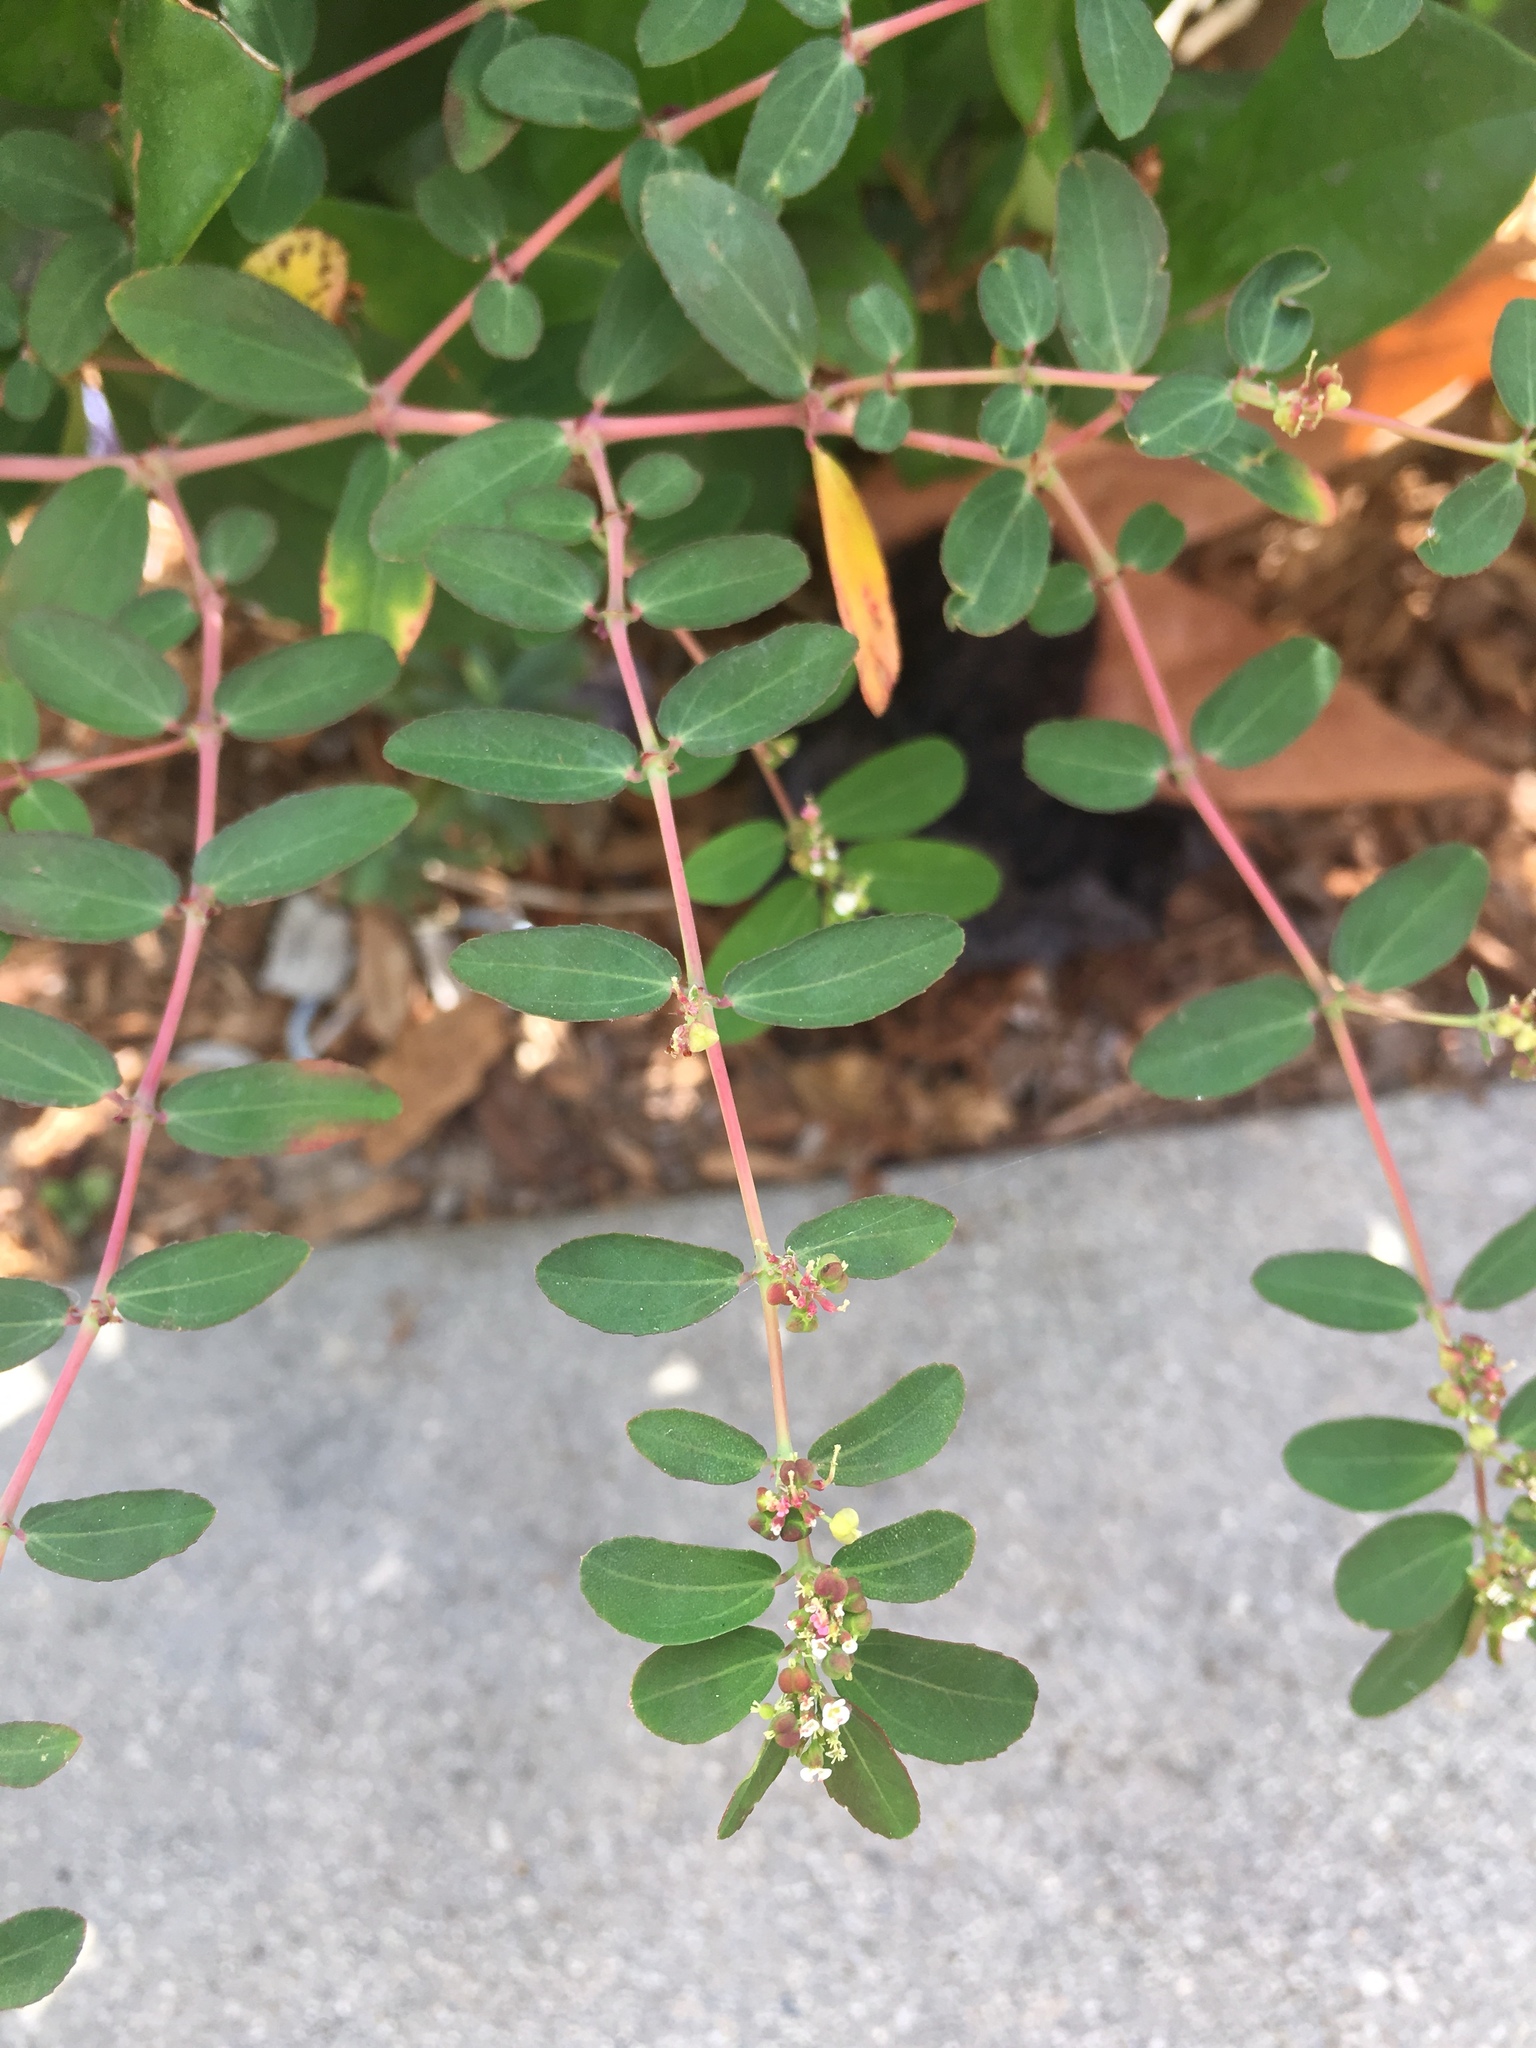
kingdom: Plantae
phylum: Tracheophyta
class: Magnoliopsida
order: Malpighiales
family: Euphorbiaceae
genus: Euphorbia
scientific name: Euphorbia hypericifolia
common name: Graceful sandmat
